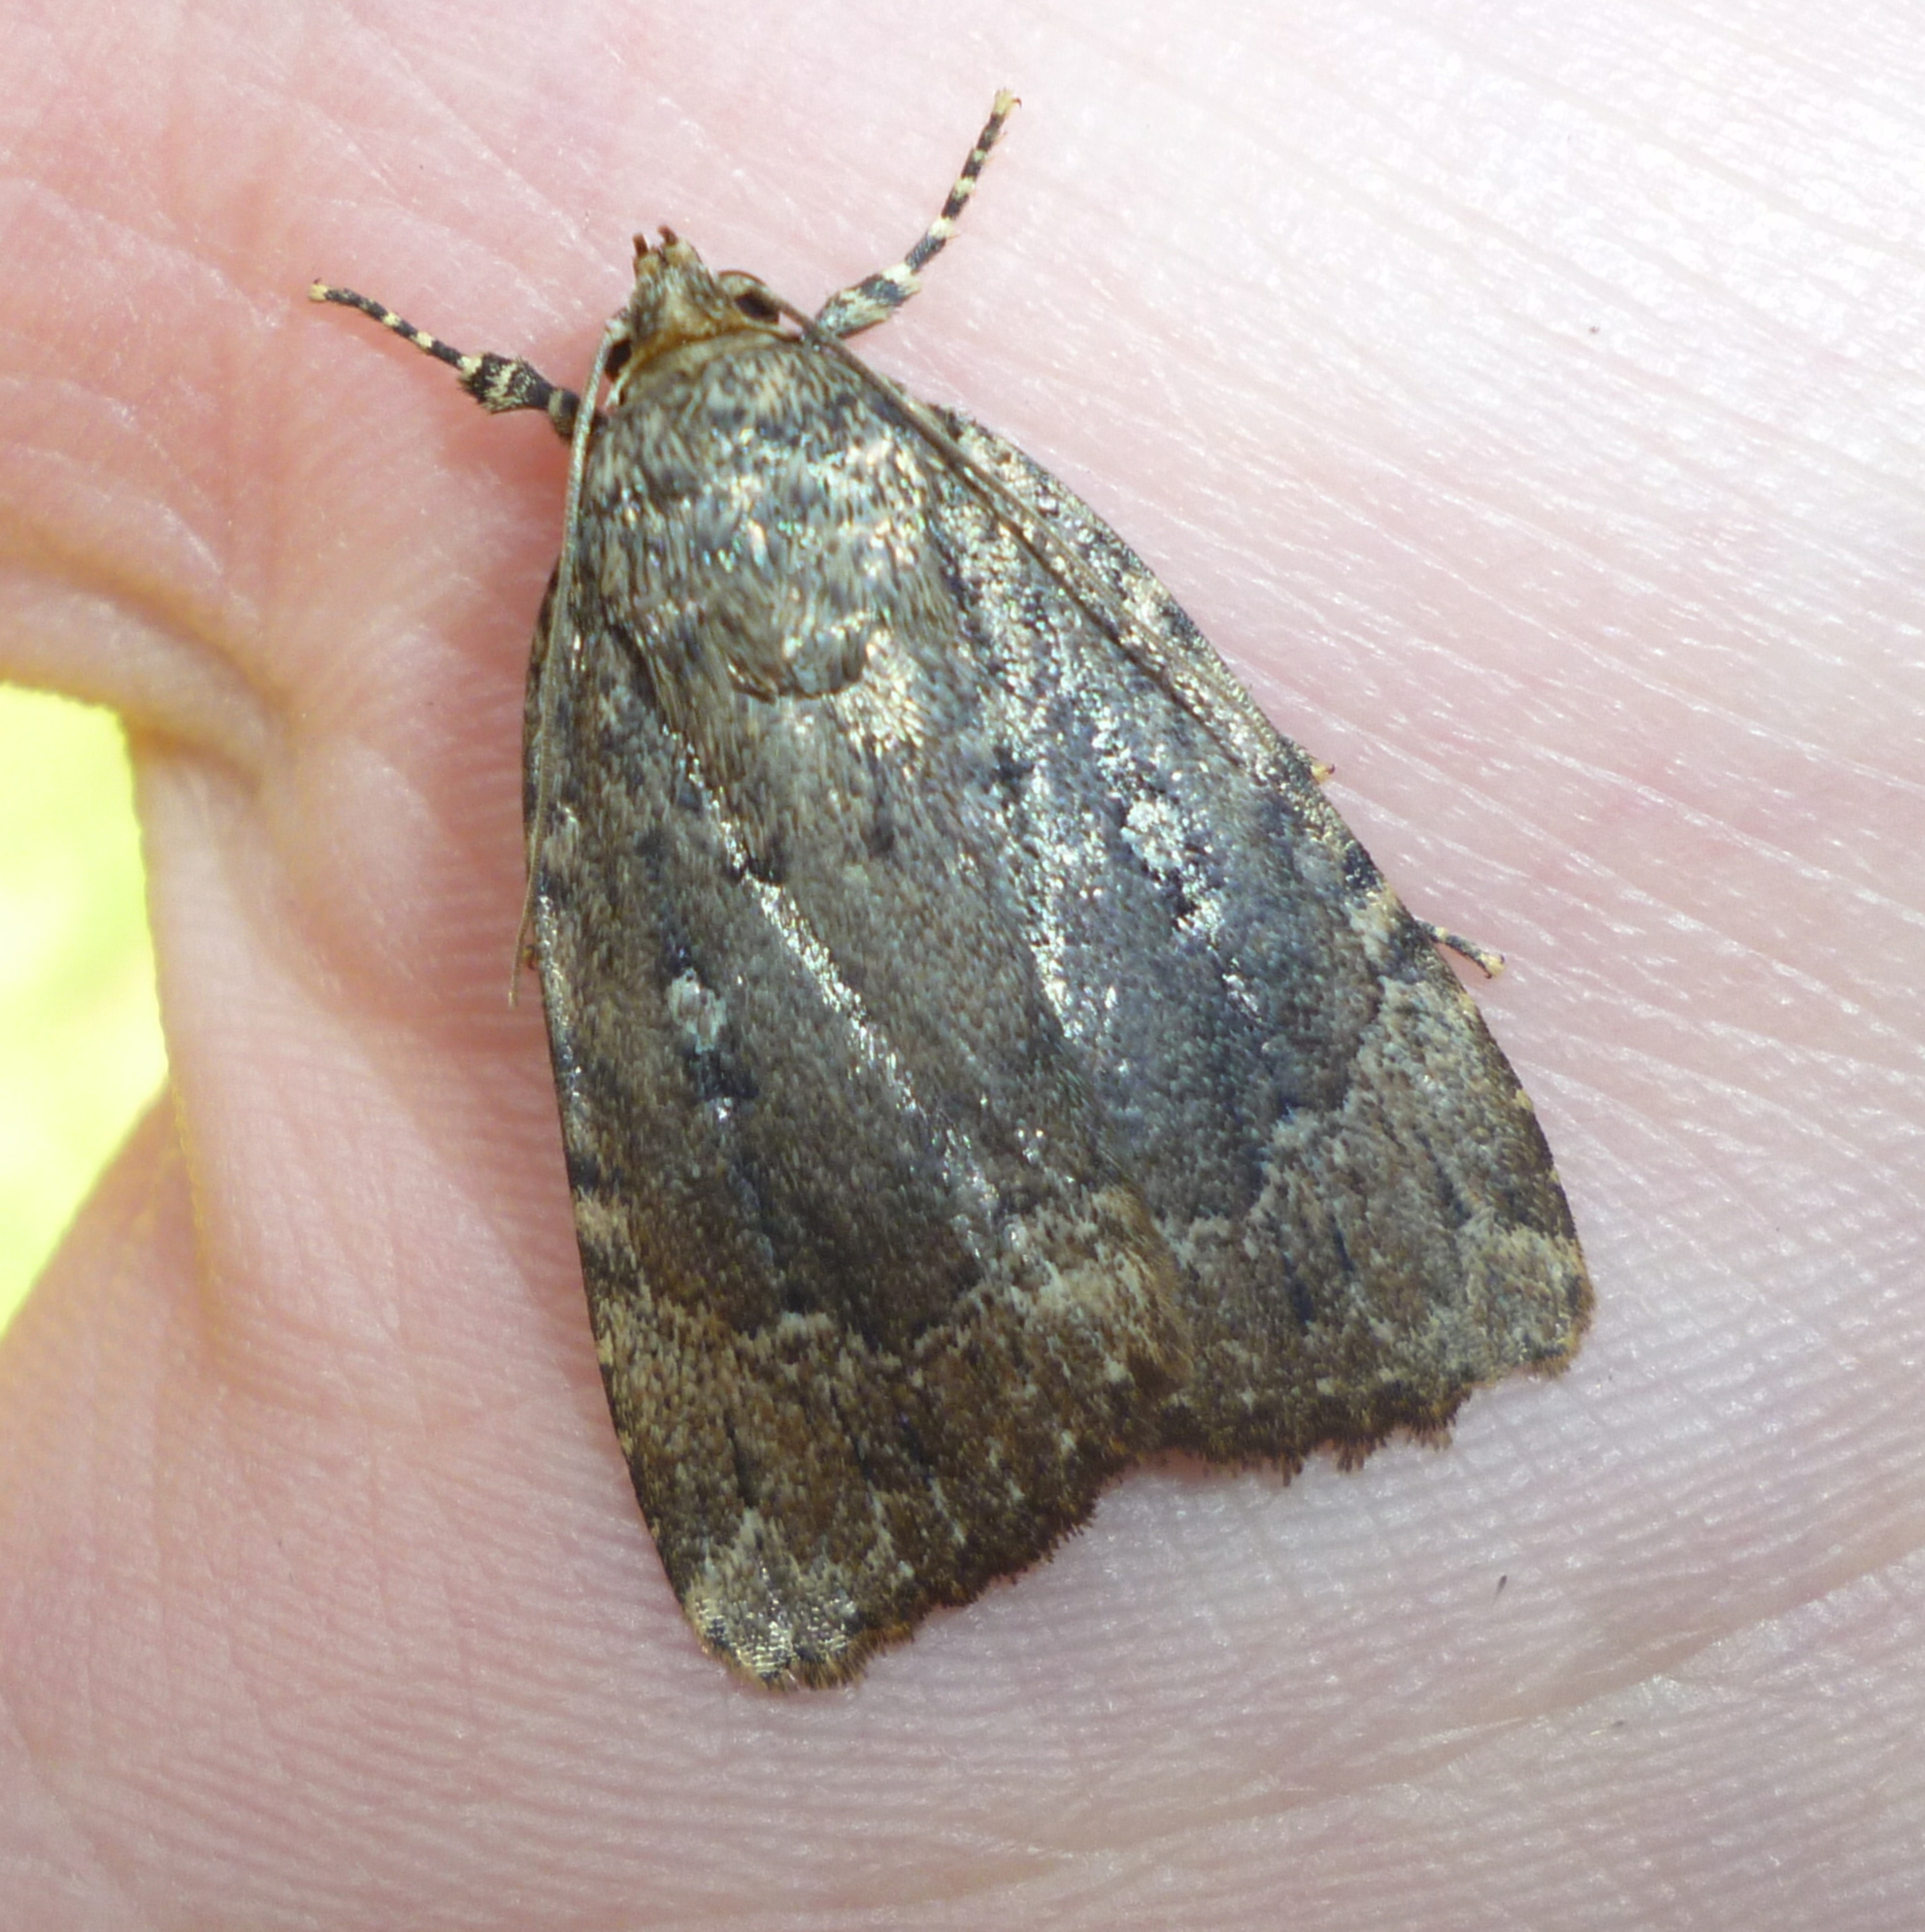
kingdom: Animalia
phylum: Arthropoda
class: Insecta
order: Lepidoptera
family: Noctuidae
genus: Amphipyra
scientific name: Amphipyra pyramidoides
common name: American copper underwing
